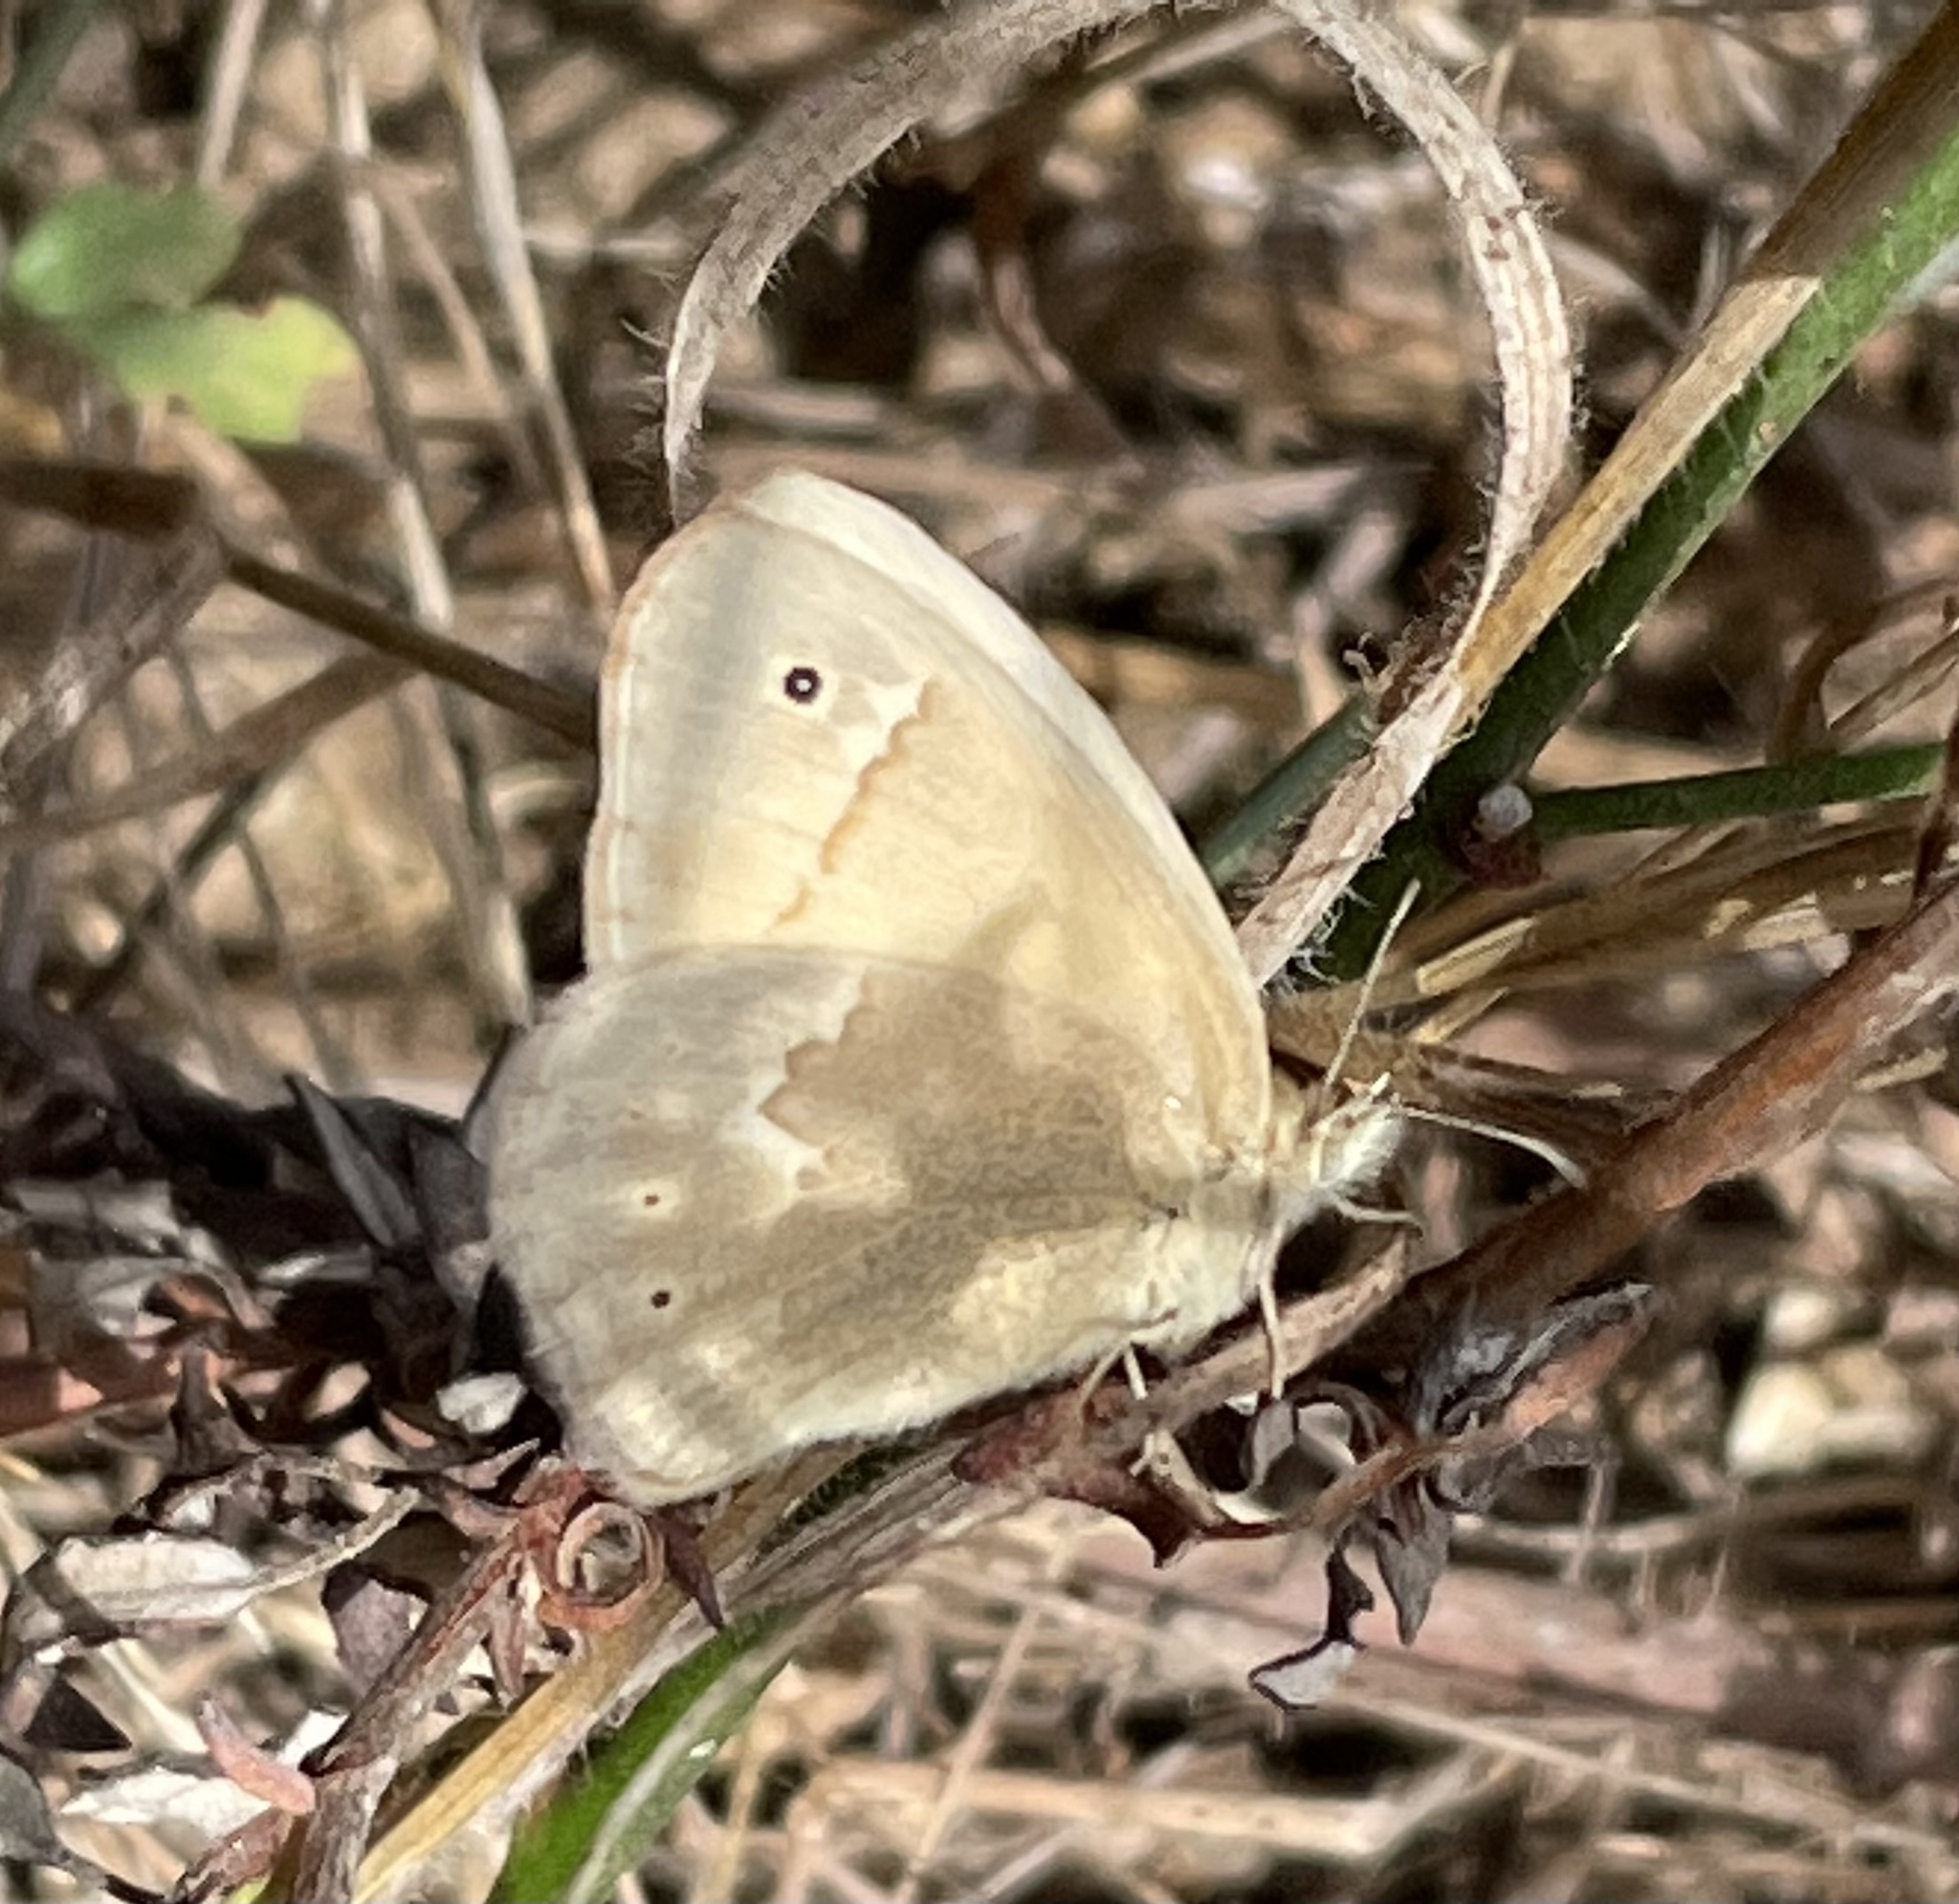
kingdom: Animalia
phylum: Arthropoda
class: Insecta
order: Lepidoptera
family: Nymphalidae
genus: Coenonympha
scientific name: Coenonympha california
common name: Common ringlet
